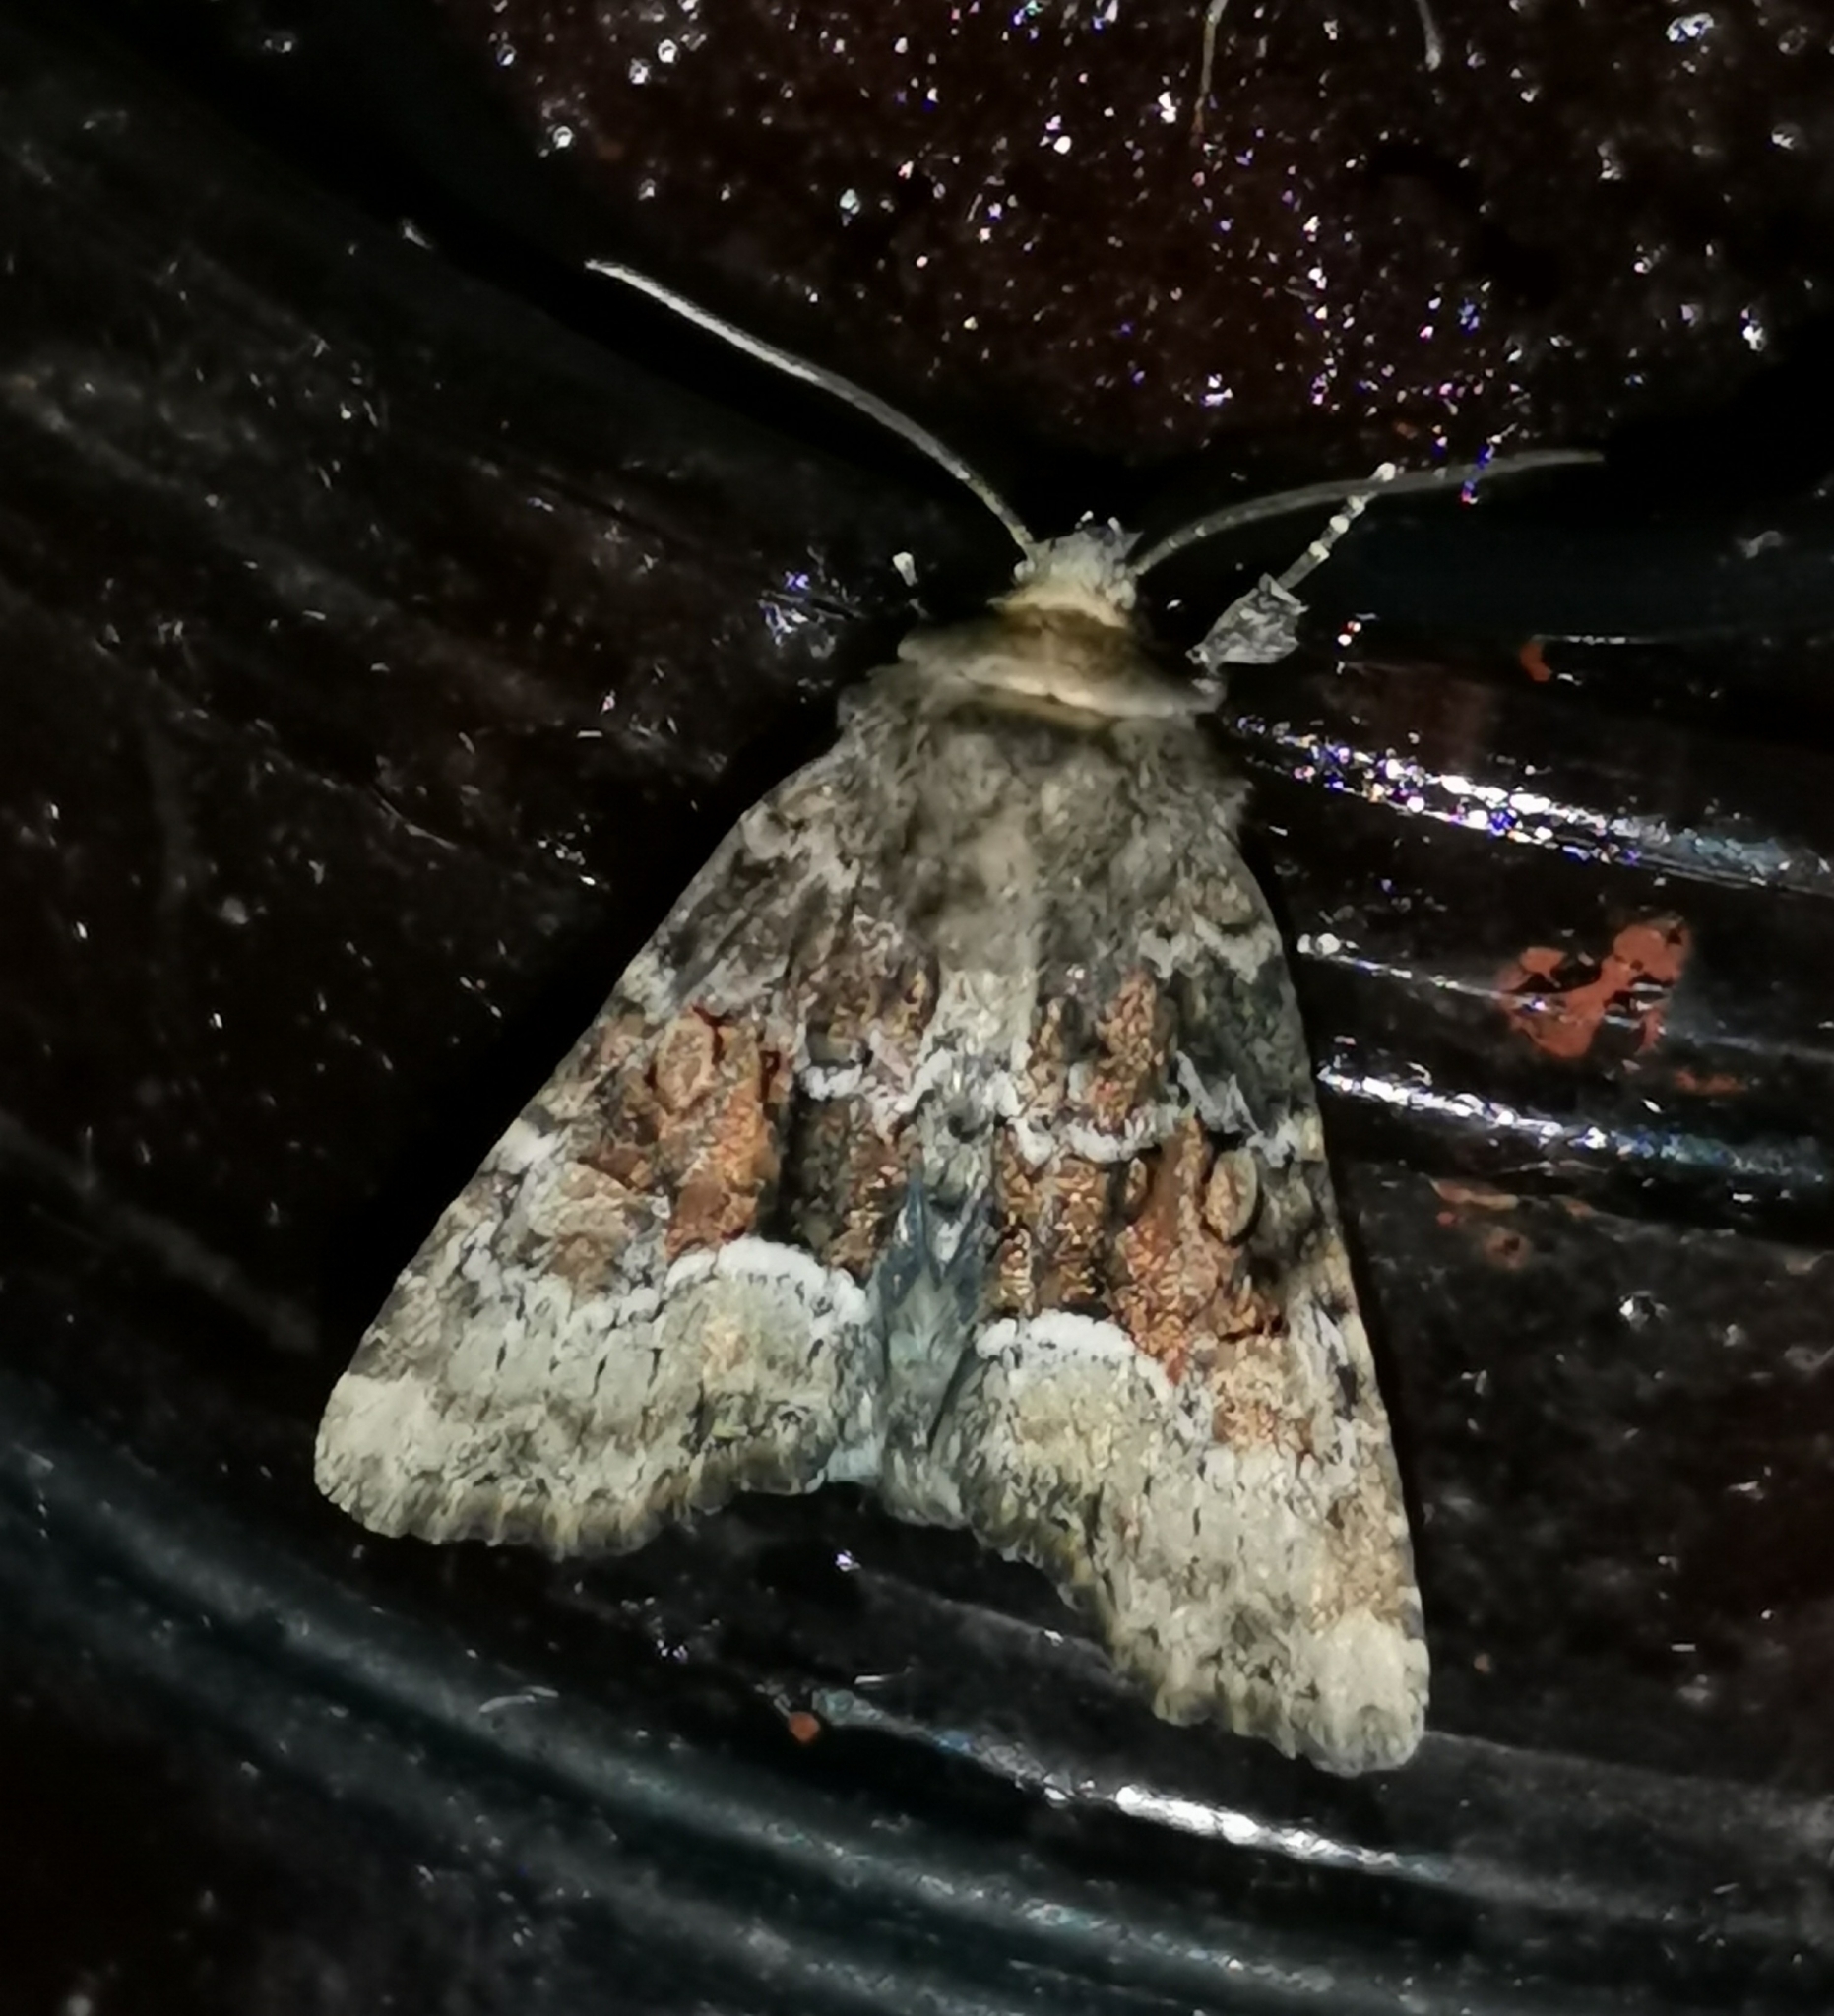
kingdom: Animalia
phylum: Arthropoda
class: Insecta
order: Lepidoptera
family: Noctuidae
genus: Oligia
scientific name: Oligia latruncula
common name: Tawny marbled minor
